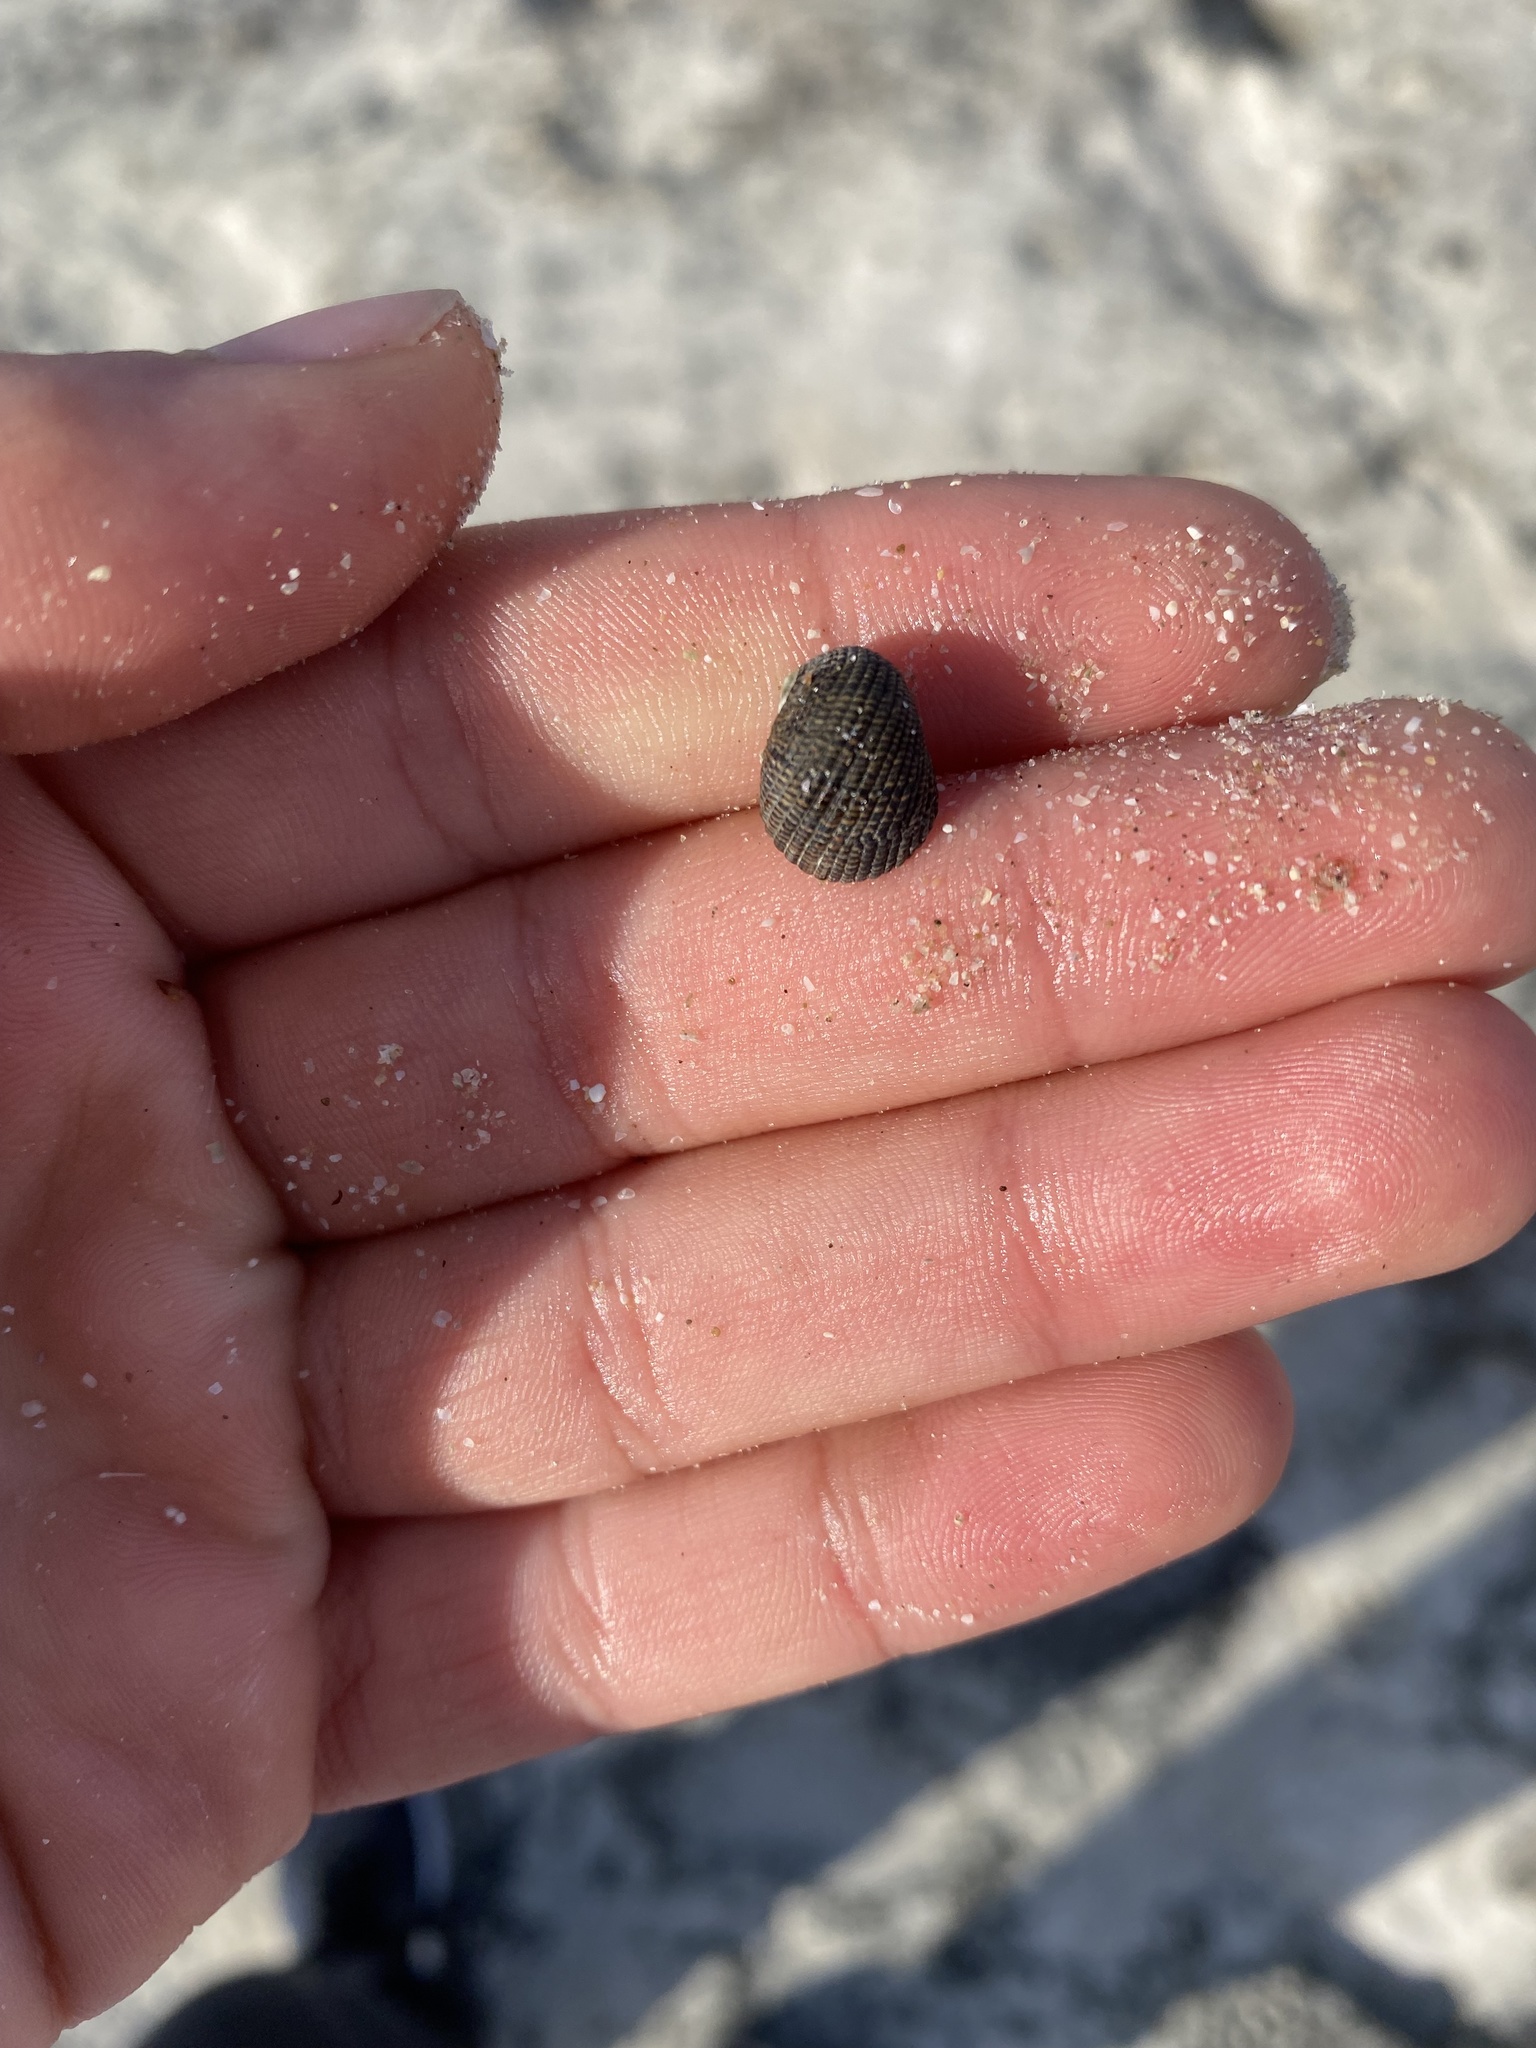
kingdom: Animalia
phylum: Mollusca
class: Gastropoda
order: Cycloneritida
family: Neritidae
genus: Nerita
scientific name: Nerita funiculata
